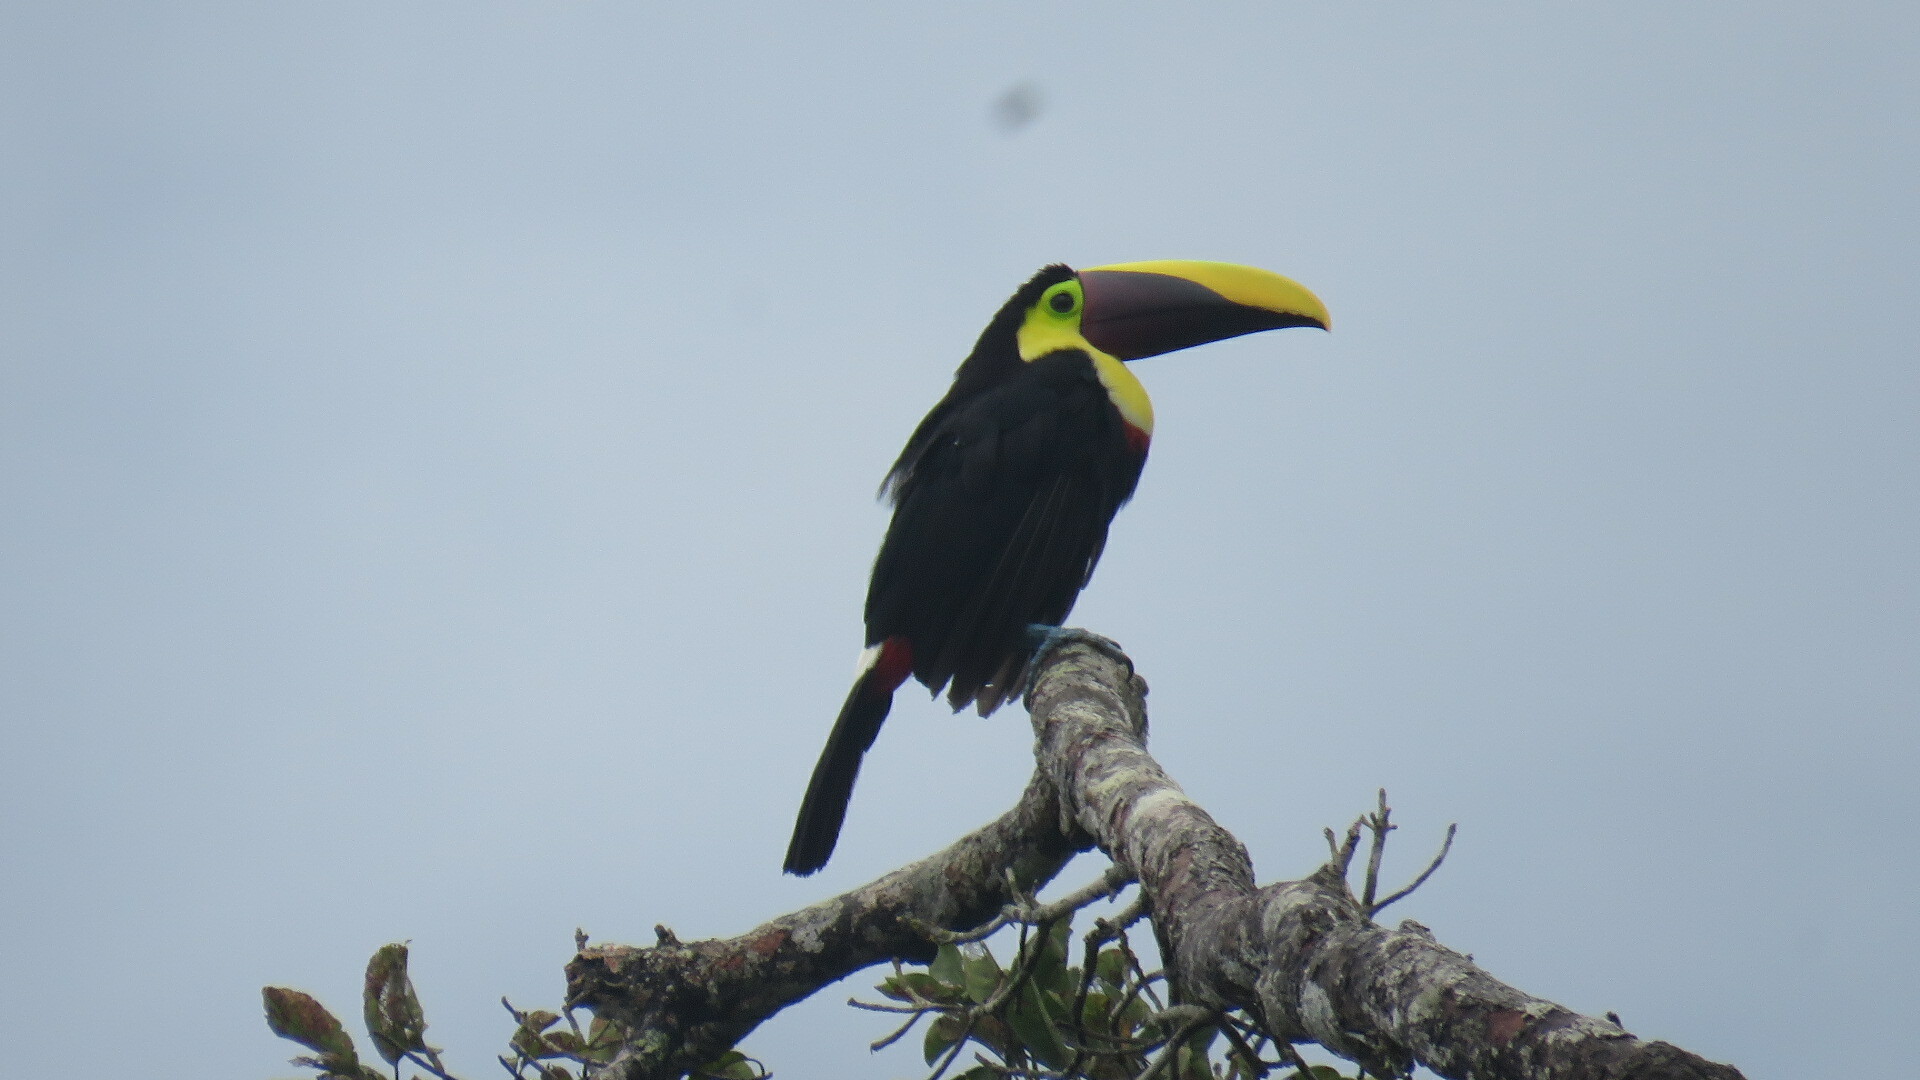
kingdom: Animalia
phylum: Chordata
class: Aves
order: Piciformes
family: Ramphastidae
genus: Ramphastos
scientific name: Ramphastos ambiguus
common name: Yellow-throated toucan
